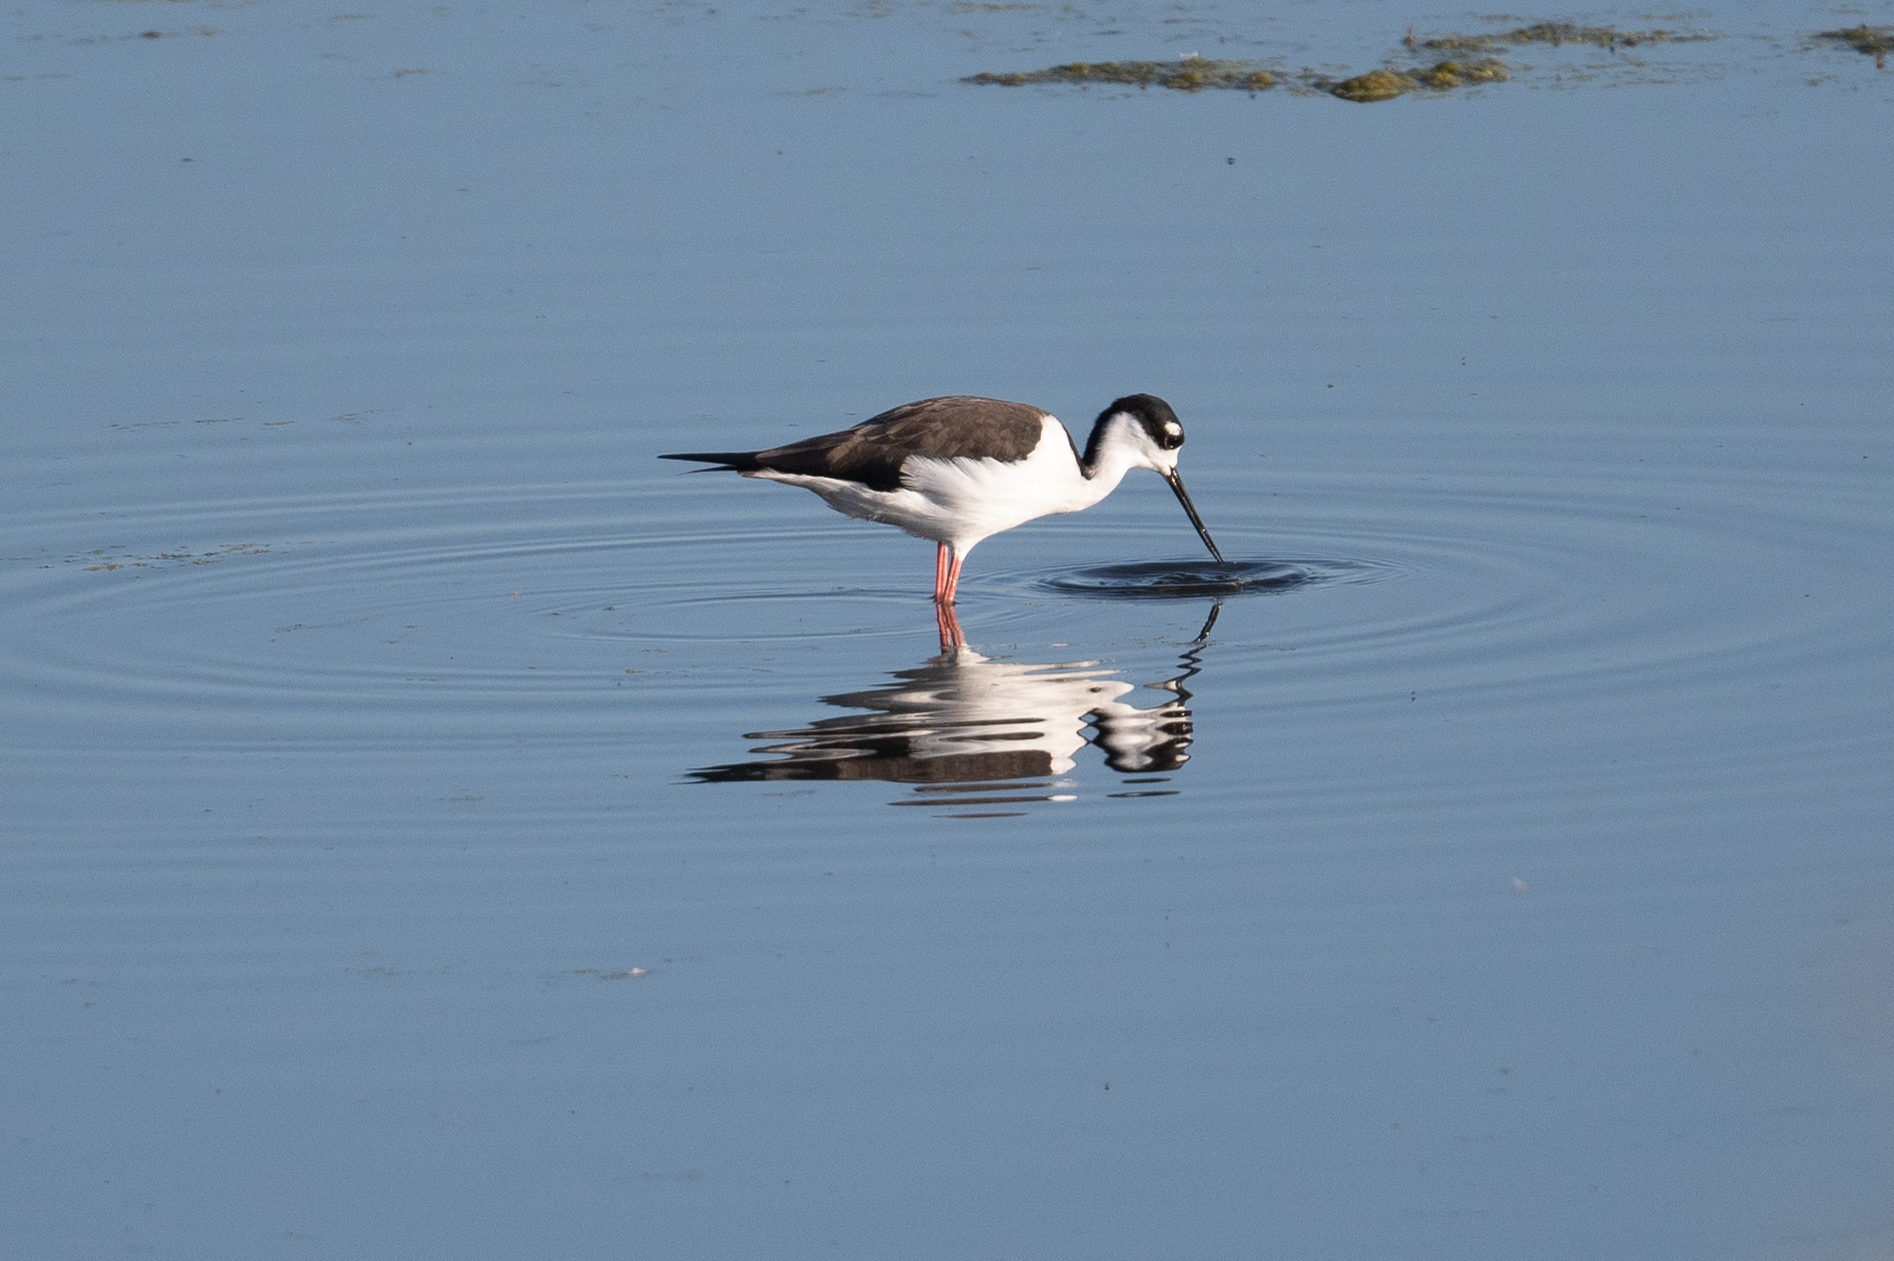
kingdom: Animalia
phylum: Chordata
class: Aves
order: Charadriiformes
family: Recurvirostridae
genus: Himantopus
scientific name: Himantopus mexicanus
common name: Black-necked stilt
